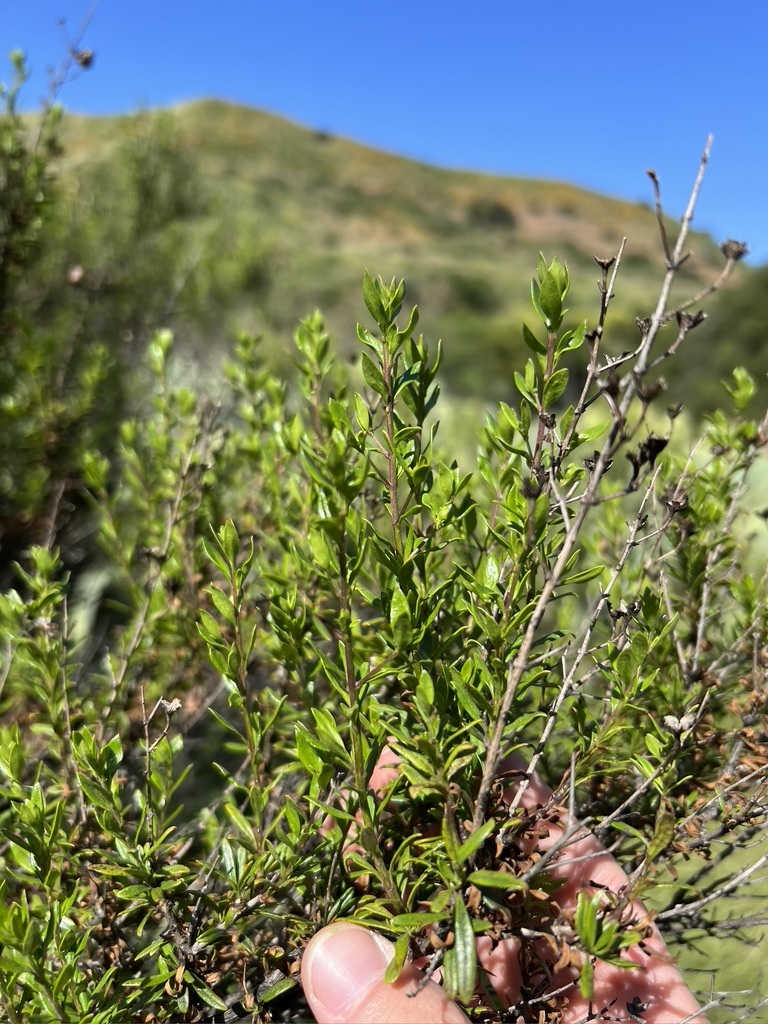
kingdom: Plantae
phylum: Tracheophyta
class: Magnoliopsida
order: Lamiales
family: Plantaginaceae
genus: Keckiella
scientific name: Keckiella antirrhinoides
